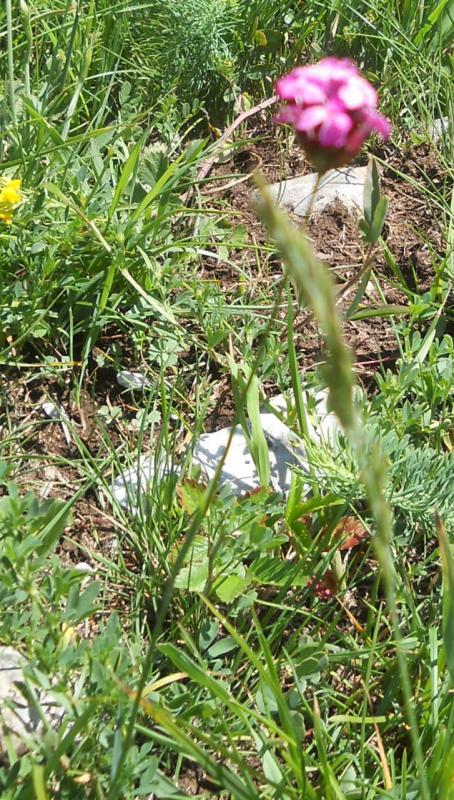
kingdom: Plantae
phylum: Tracheophyta
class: Magnoliopsida
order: Caryophyllales
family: Caryophyllaceae
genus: Dianthus
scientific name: Dianthus carthusianorum
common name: Carthusian pink
